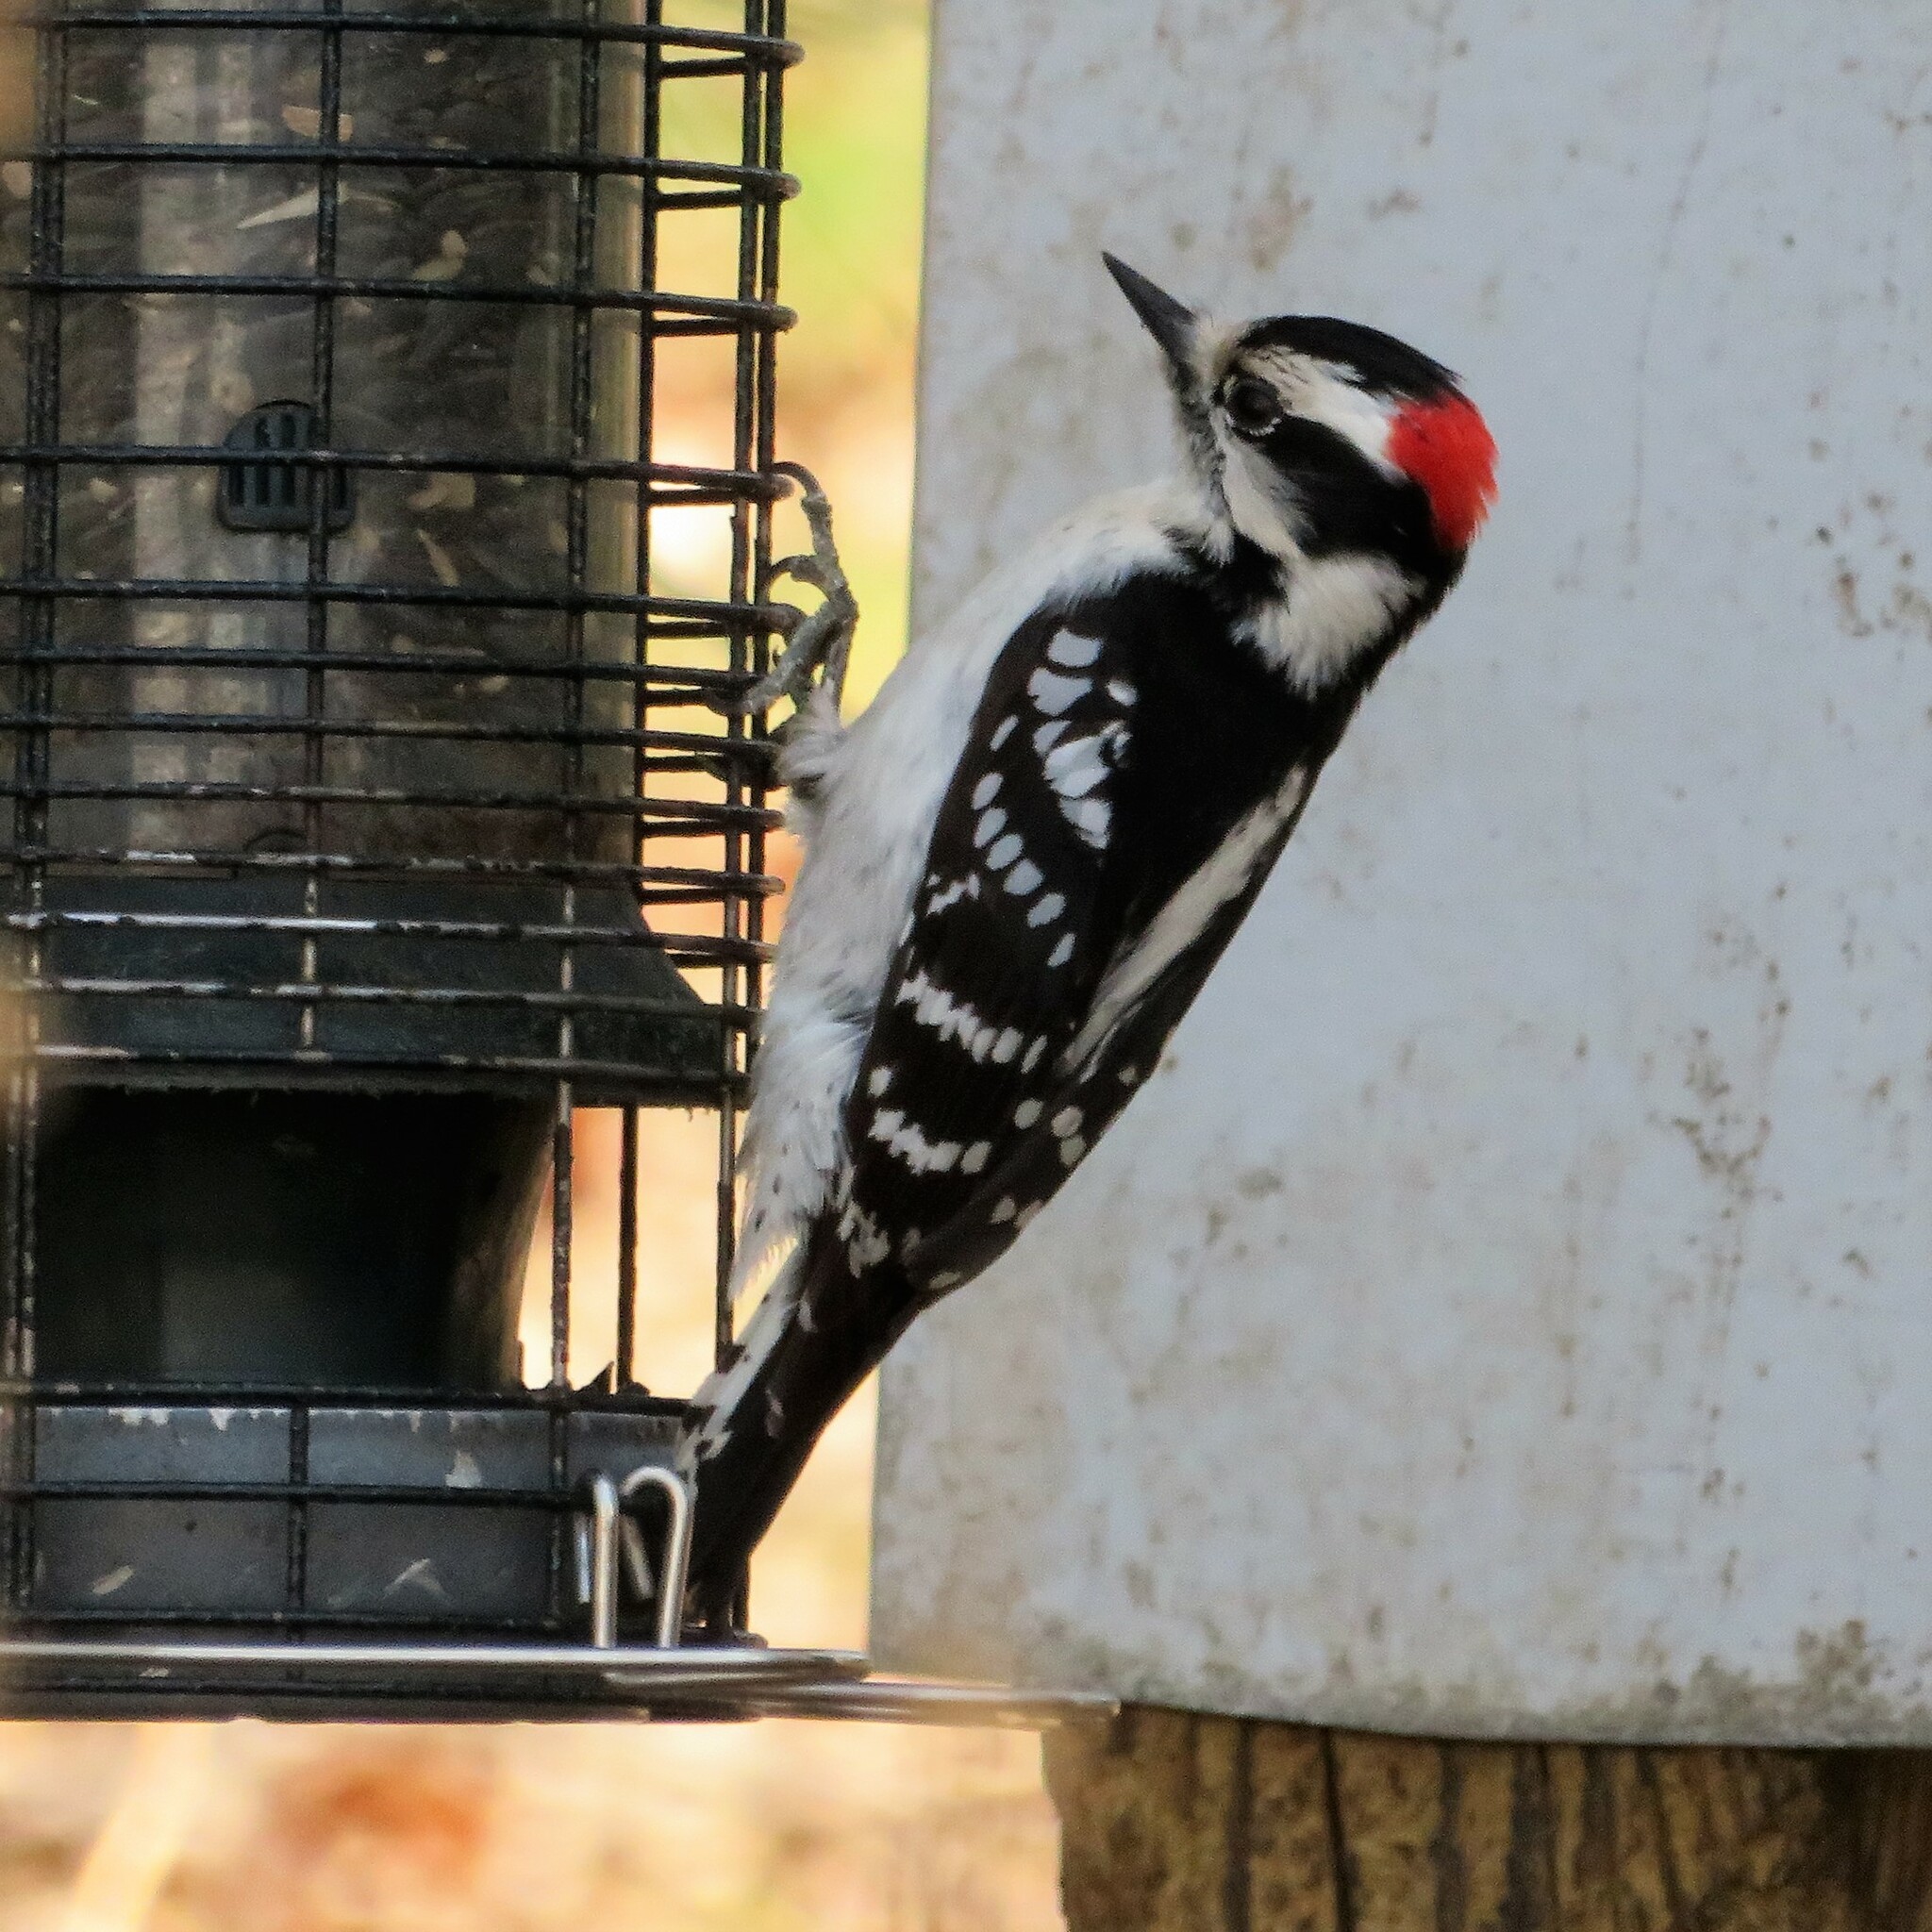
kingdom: Animalia
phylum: Chordata
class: Aves
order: Piciformes
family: Picidae
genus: Dryobates
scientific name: Dryobates pubescens
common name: Downy woodpecker
